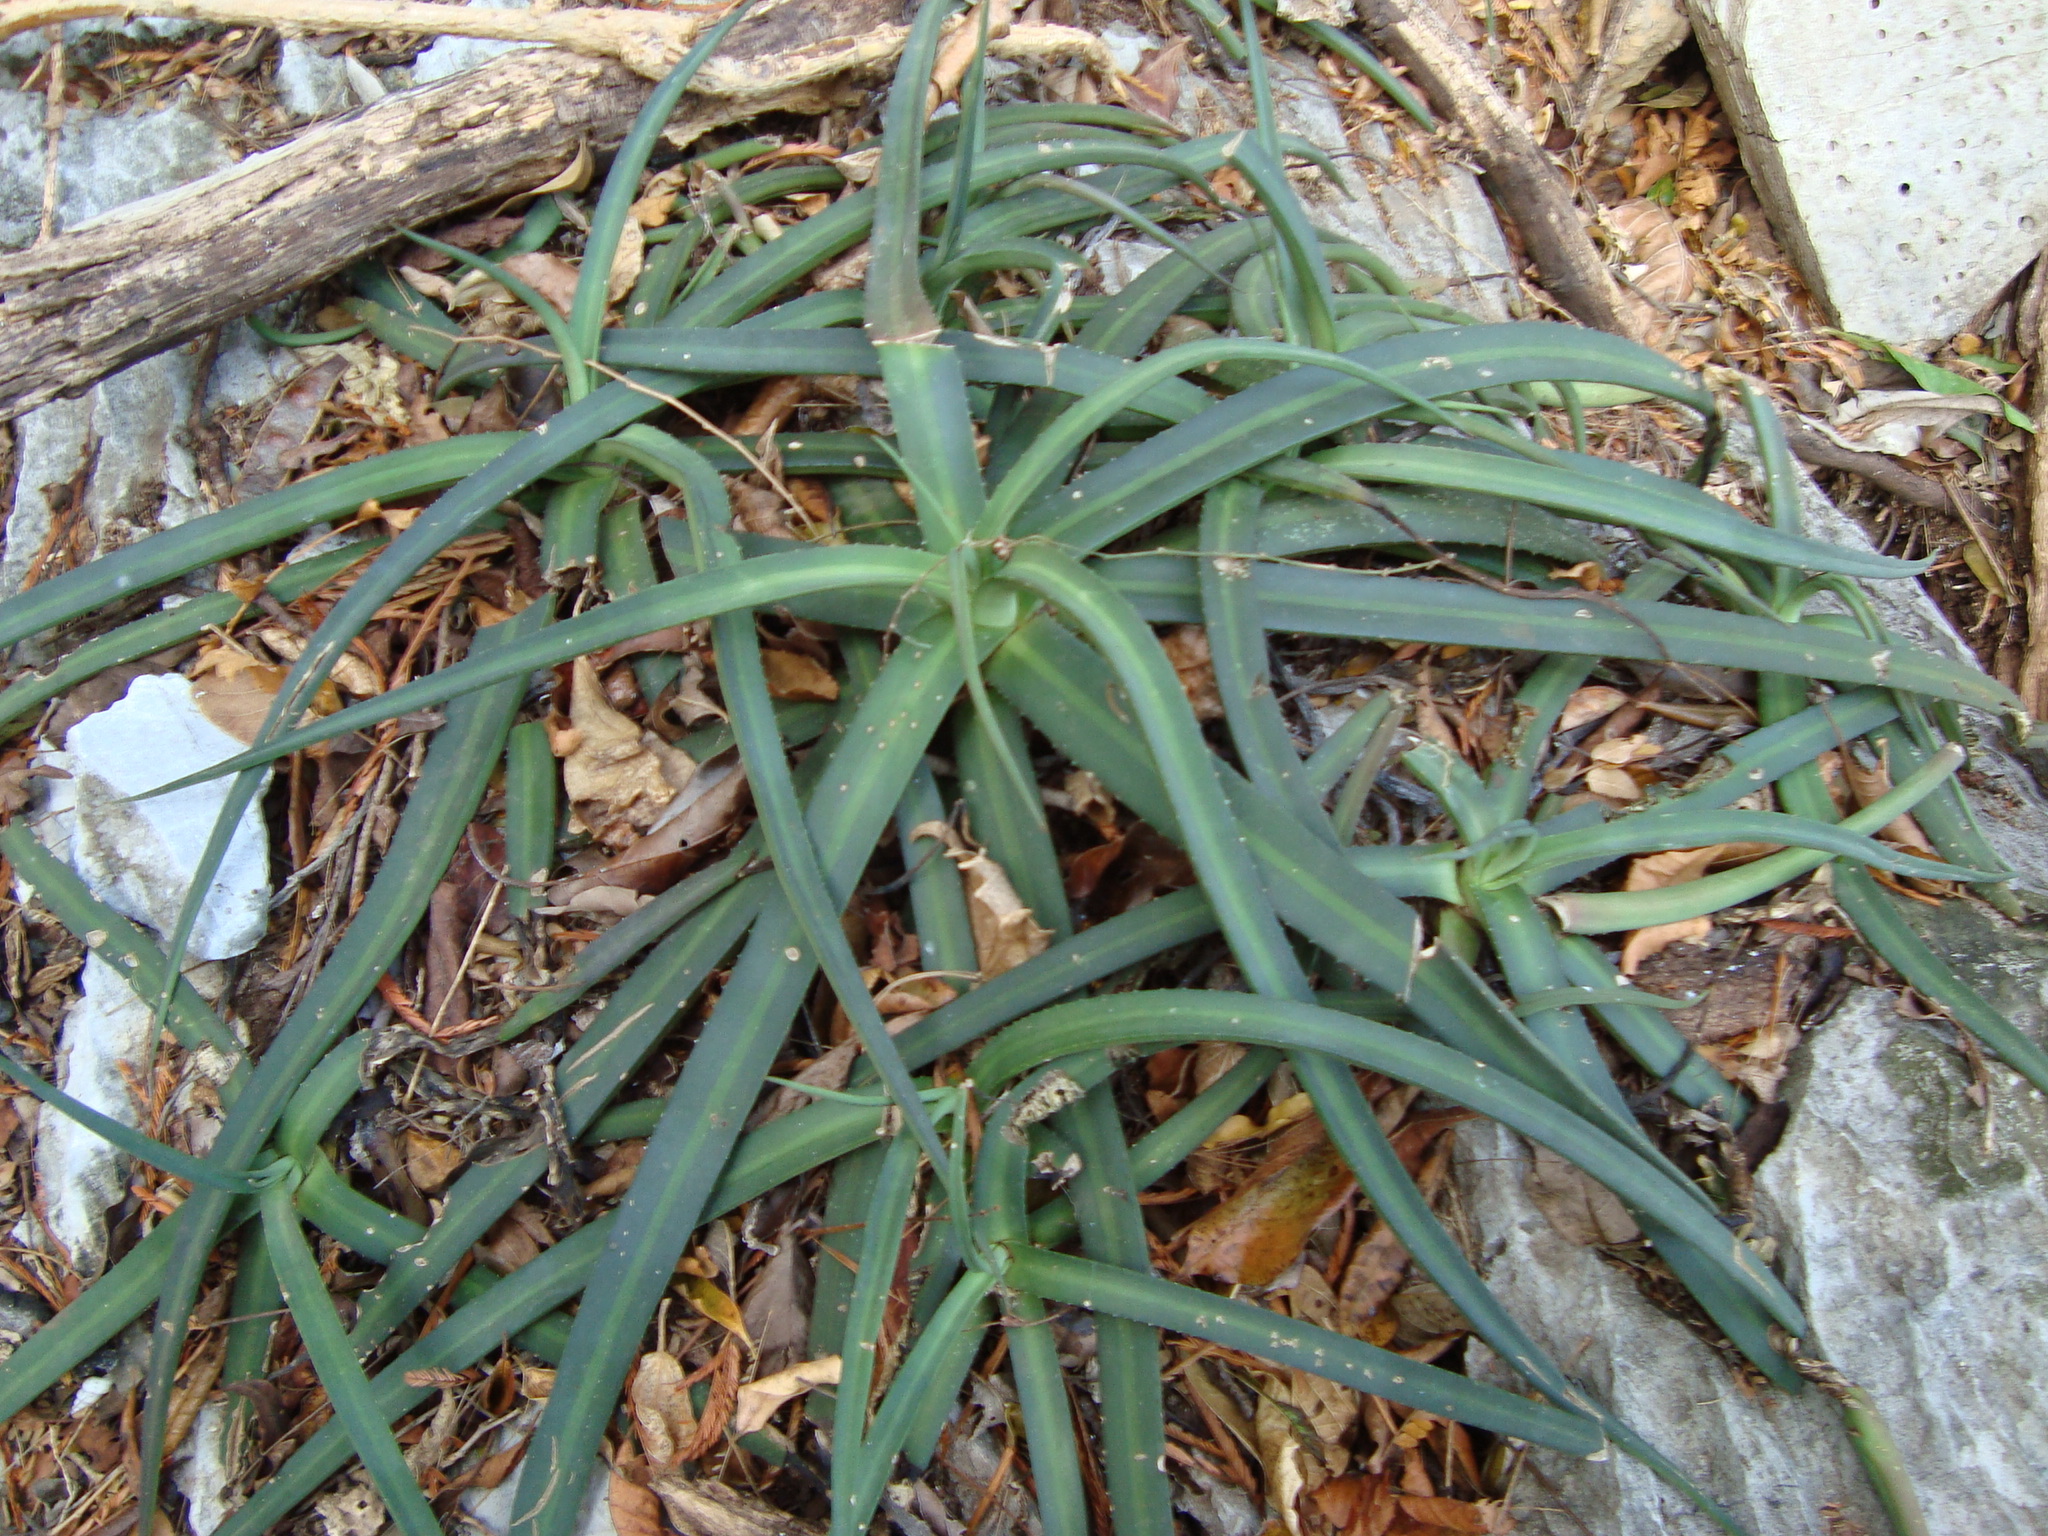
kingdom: Plantae
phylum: Tracheophyta
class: Liliopsida
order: Asparagales
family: Asparagaceae
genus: Agave
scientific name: Agave nizandensis
